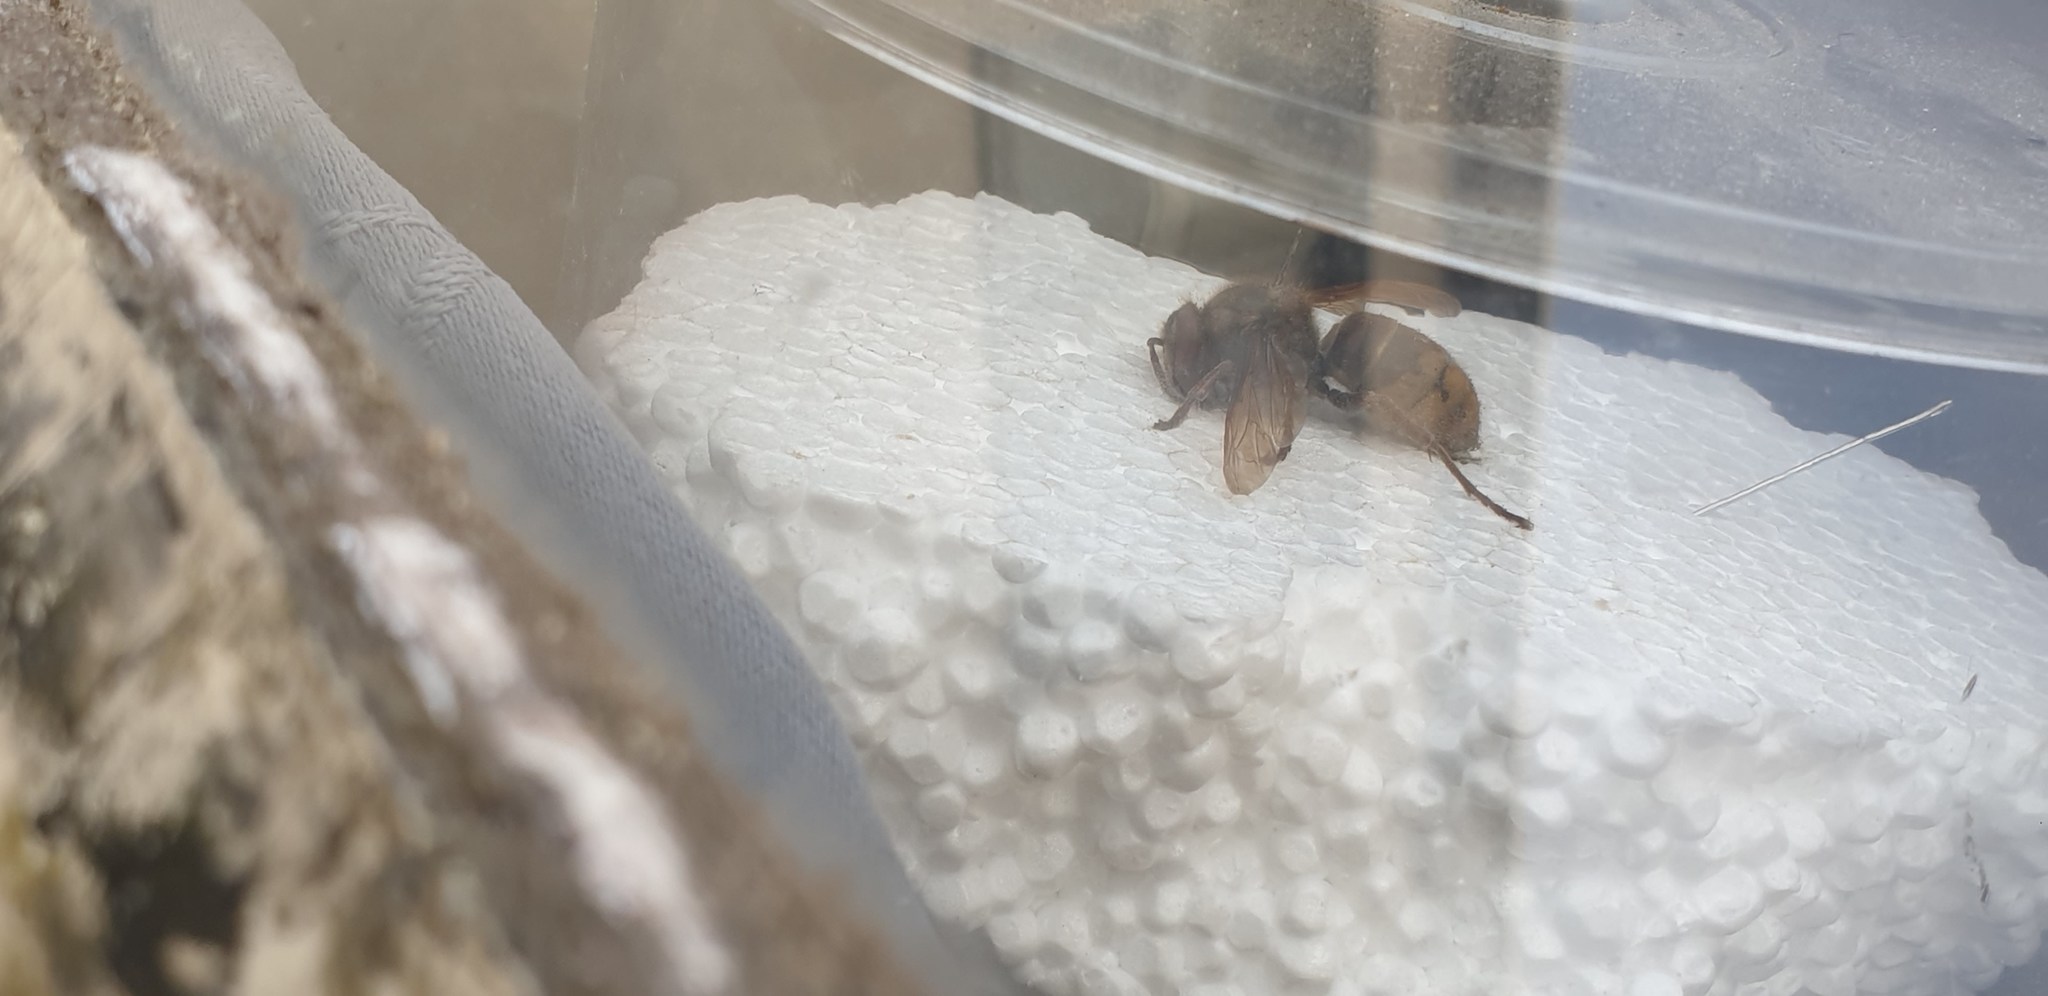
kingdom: Animalia
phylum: Arthropoda
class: Insecta
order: Hymenoptera
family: Vespidae
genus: Vespa
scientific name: Vespa crabro
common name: Hornet
